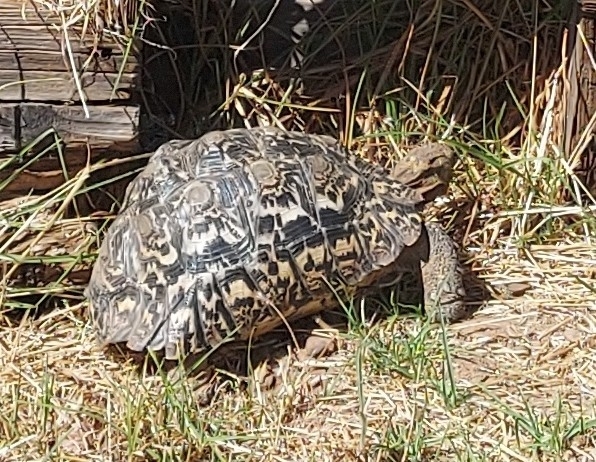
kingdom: Animalia
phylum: Chordata
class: Testudines
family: Testudinidae
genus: Stigmochelys
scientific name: Stigmochelys pardalis
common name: Leopard tortoise
